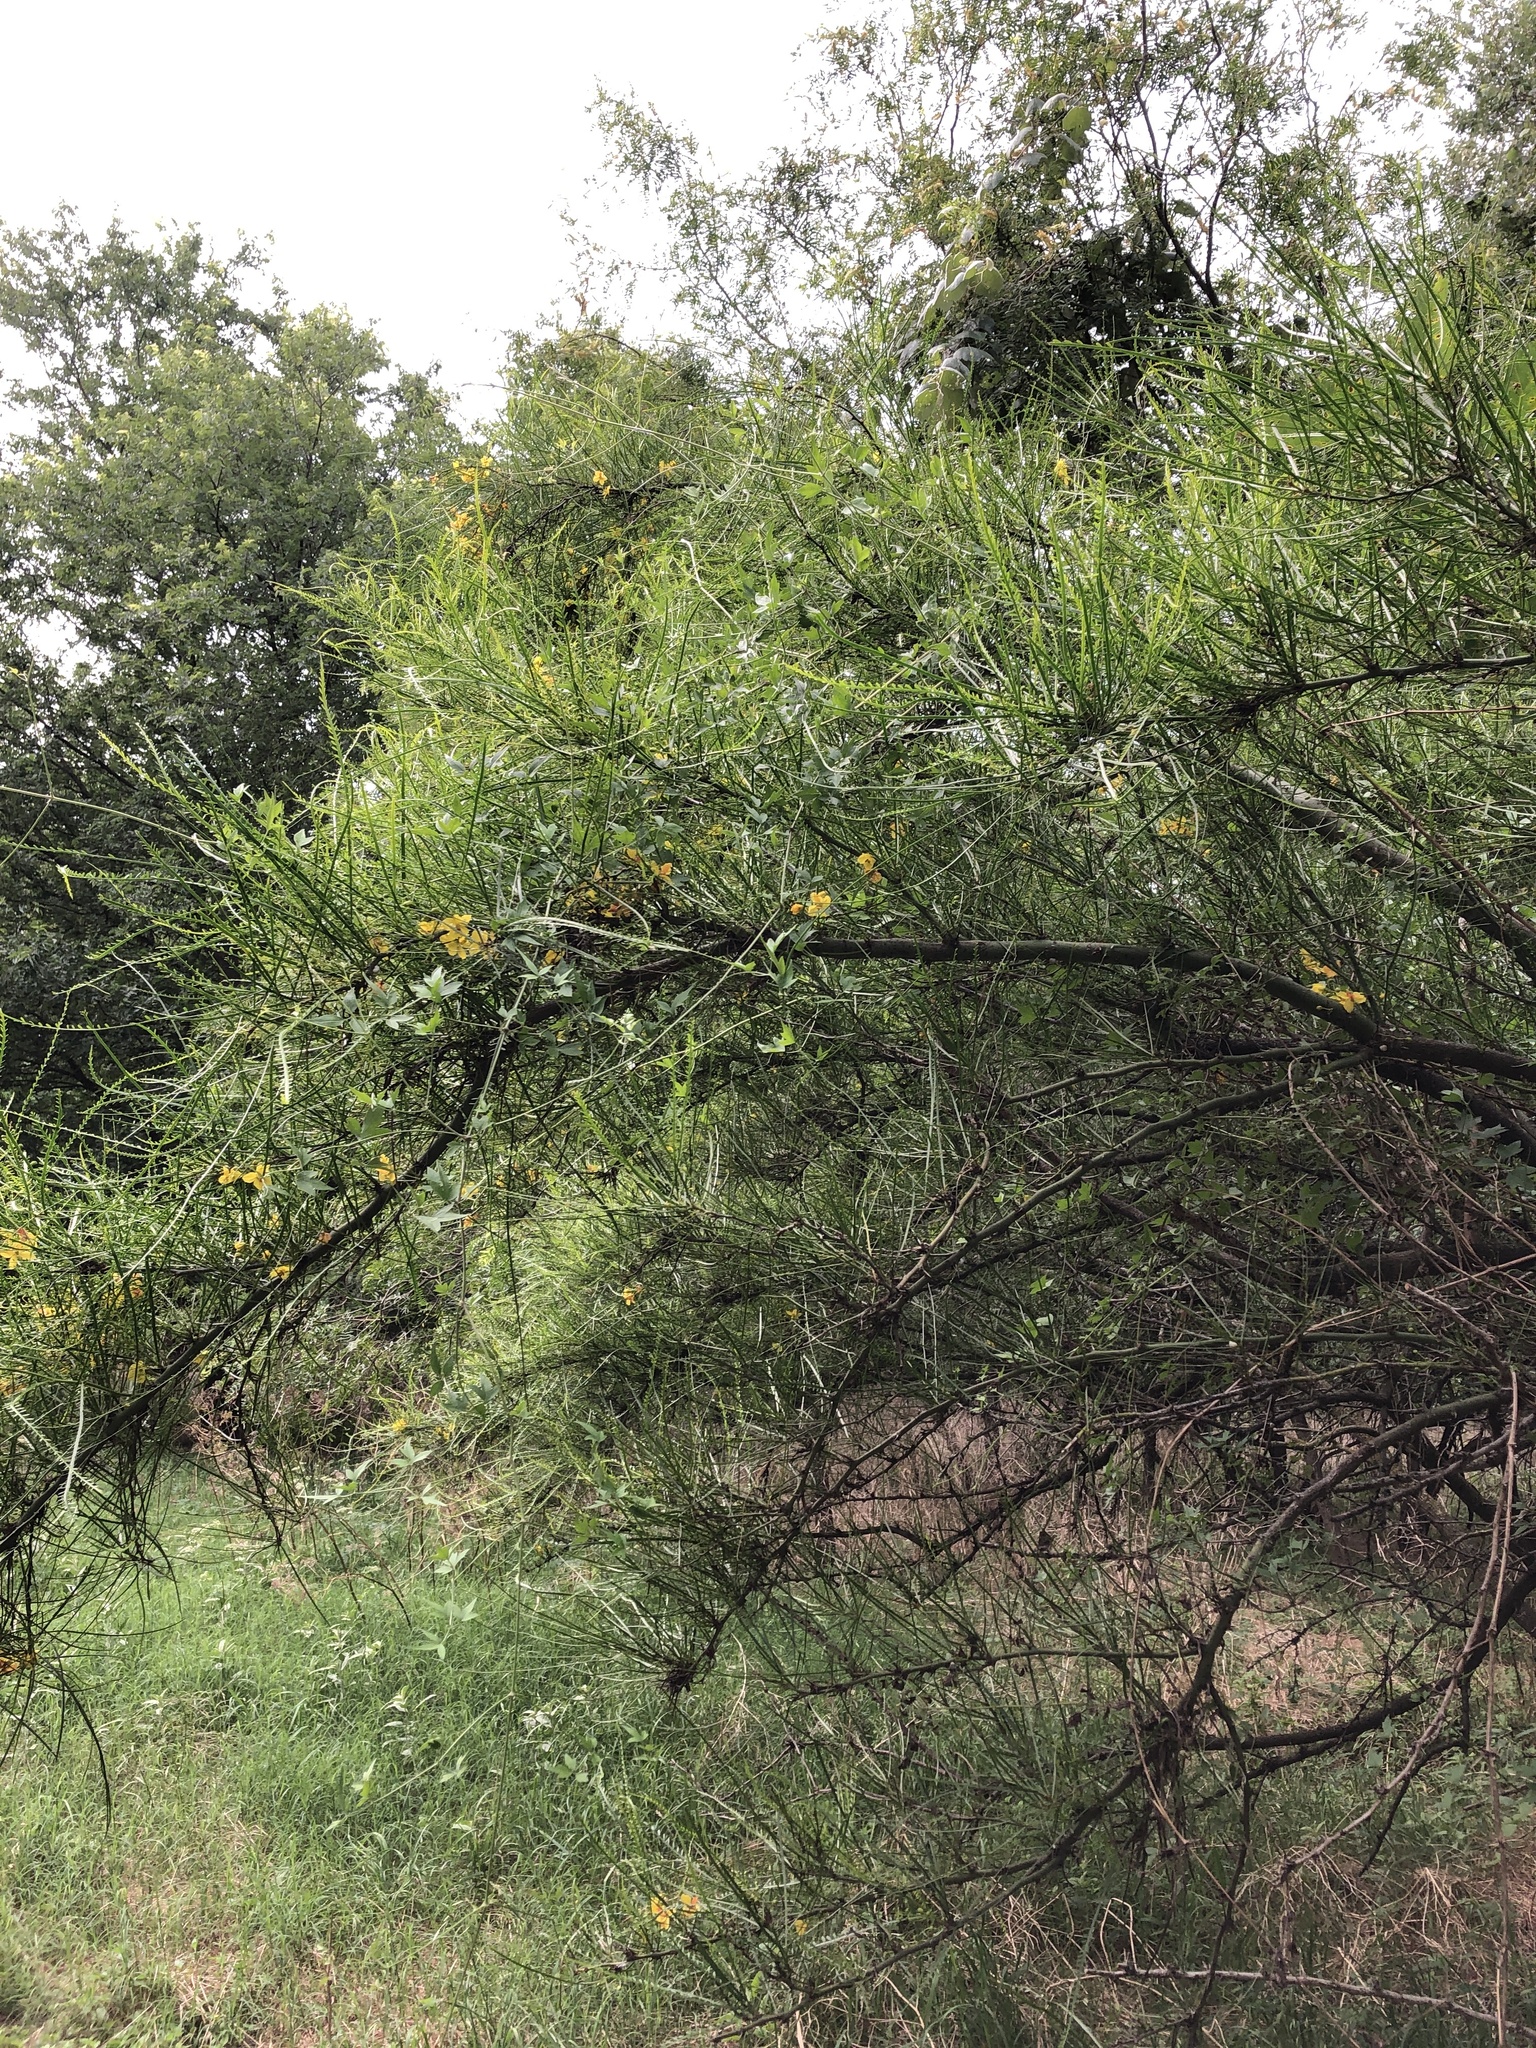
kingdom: Plantae
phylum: Tracheophyta
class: Magnoliopsida
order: Fabales
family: Fabaceae
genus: Parkinsonia
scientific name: Parkinsonia aculeata
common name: Jerusalem thorn
